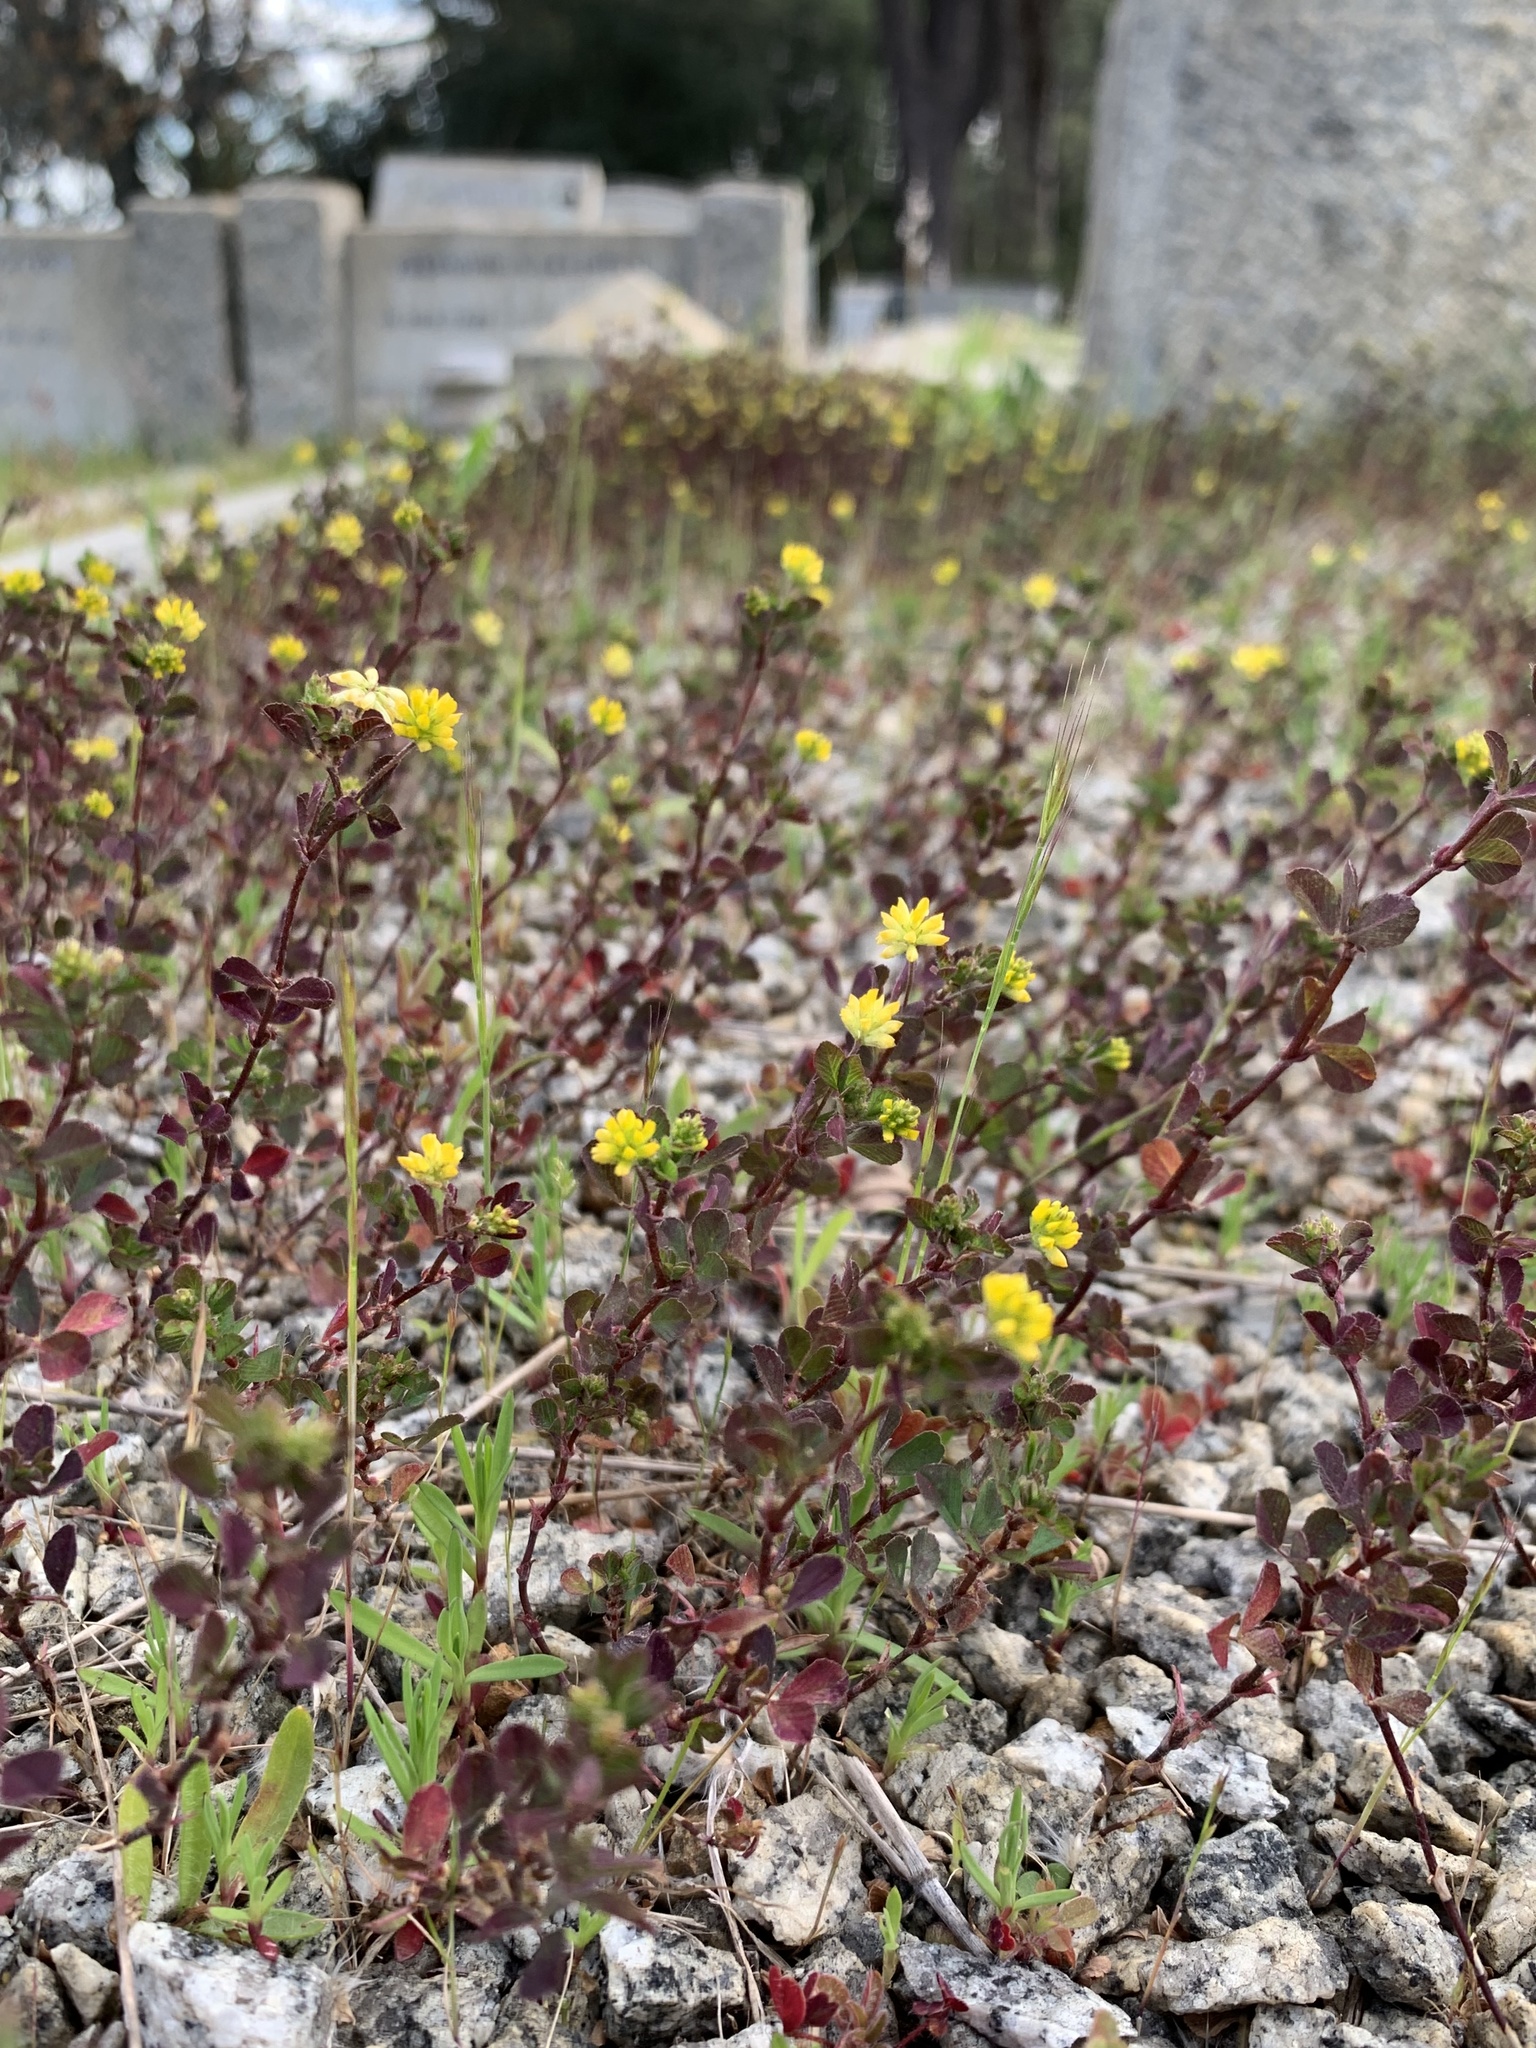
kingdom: Plantae
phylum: Tracheophyta
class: Magnoliopsida
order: Fabales
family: Fabaceae
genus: Trifolium
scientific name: Trifolium dubium
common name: Suckling clover
